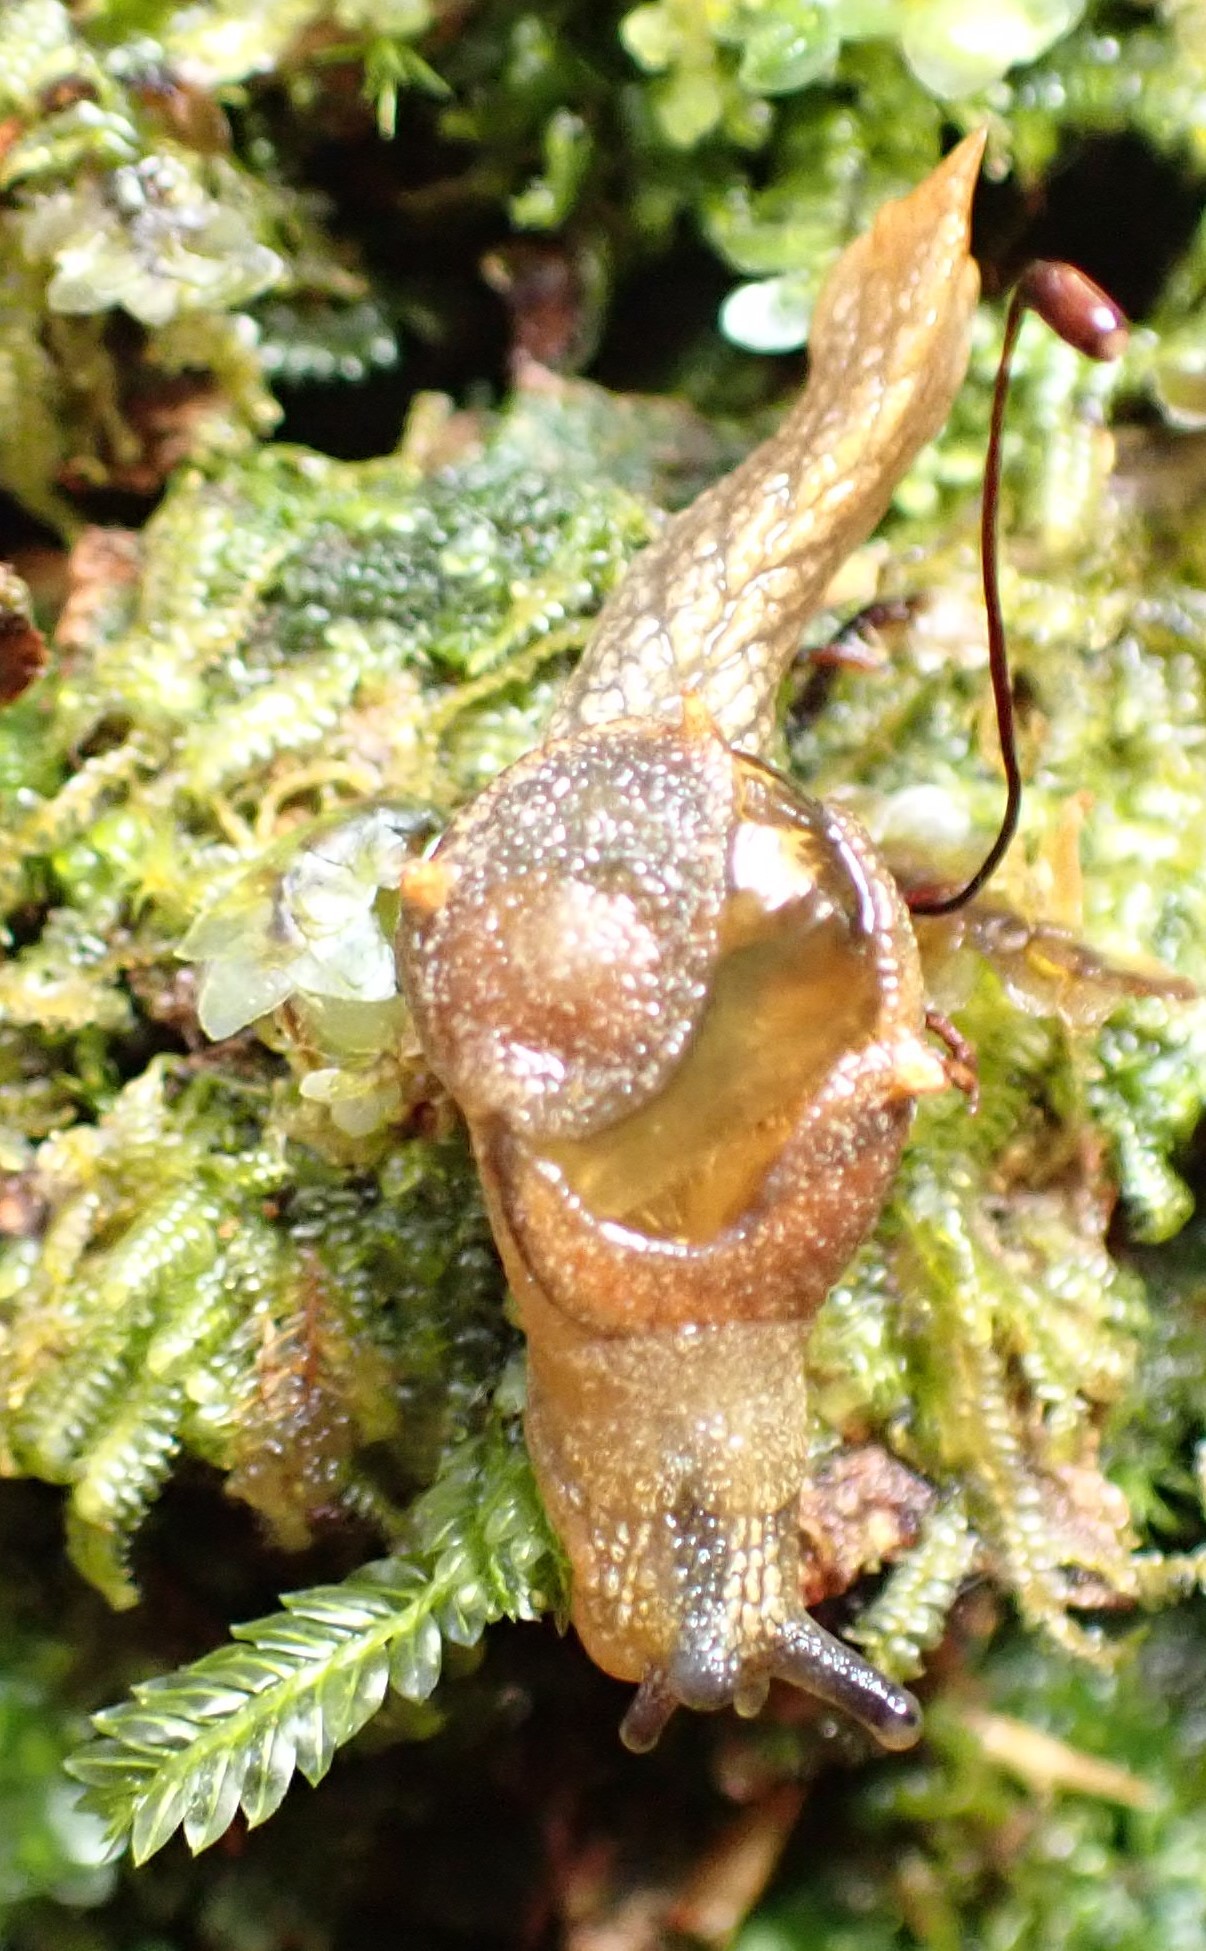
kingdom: Animalia
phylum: Mollusca
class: Gastropoda
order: Stylommatophora
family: Helicarionidae
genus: Helicarion
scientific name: Helicarion cuvieri
